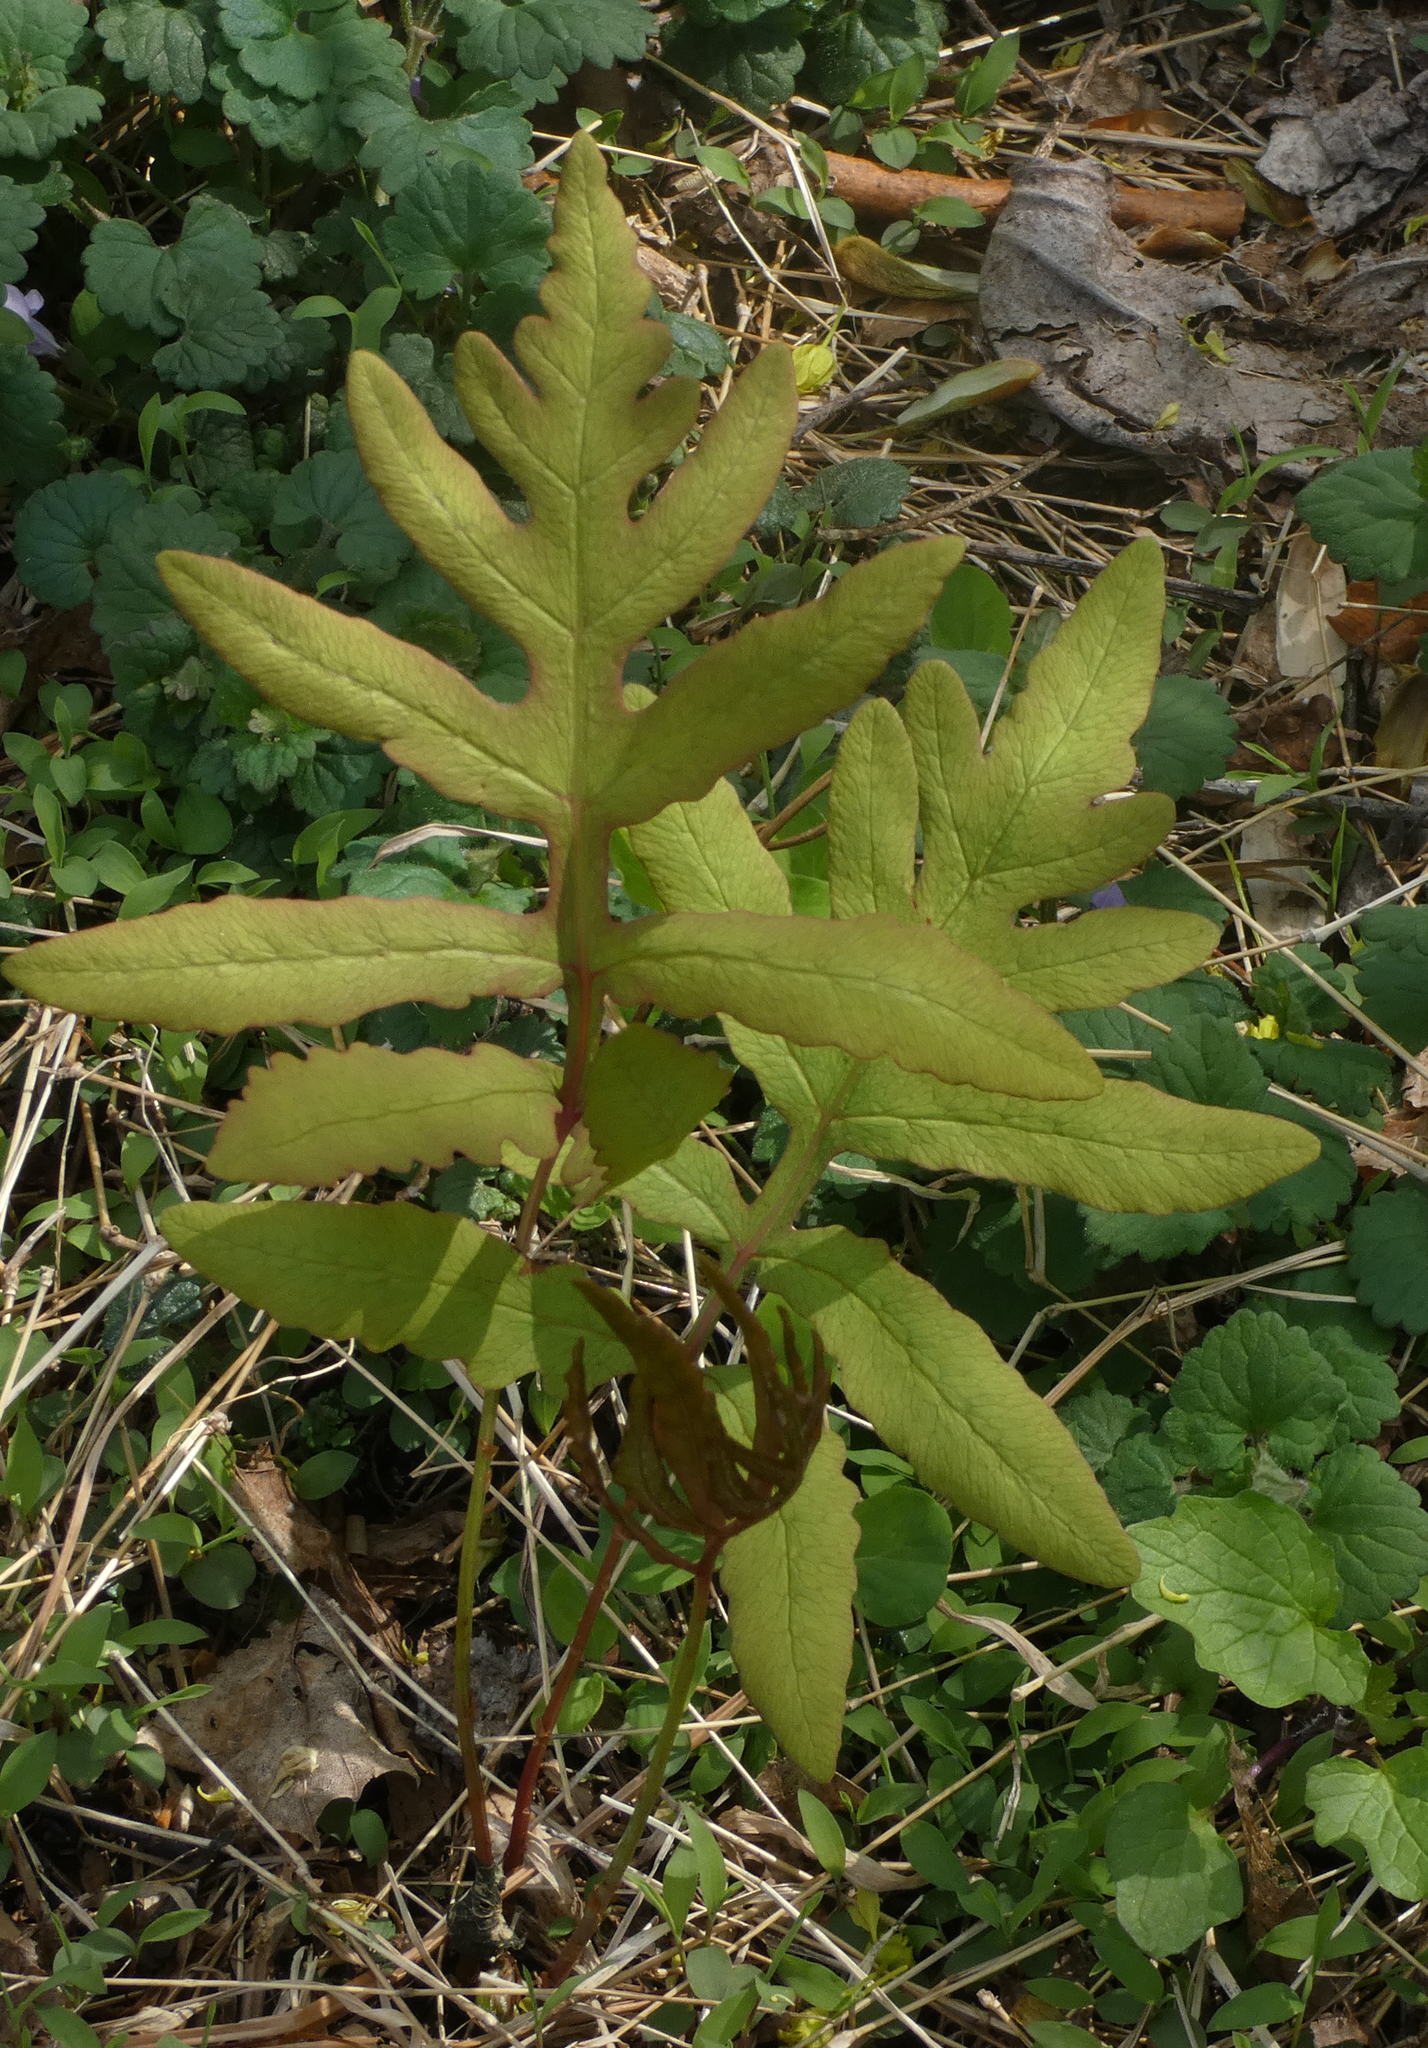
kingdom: Plantae
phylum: Tracheophyta
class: Polypodiopsida
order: Polypodiales
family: Onocleaceae
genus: Onoclea
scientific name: Onoclea sensibilis
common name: Sensitive fern
